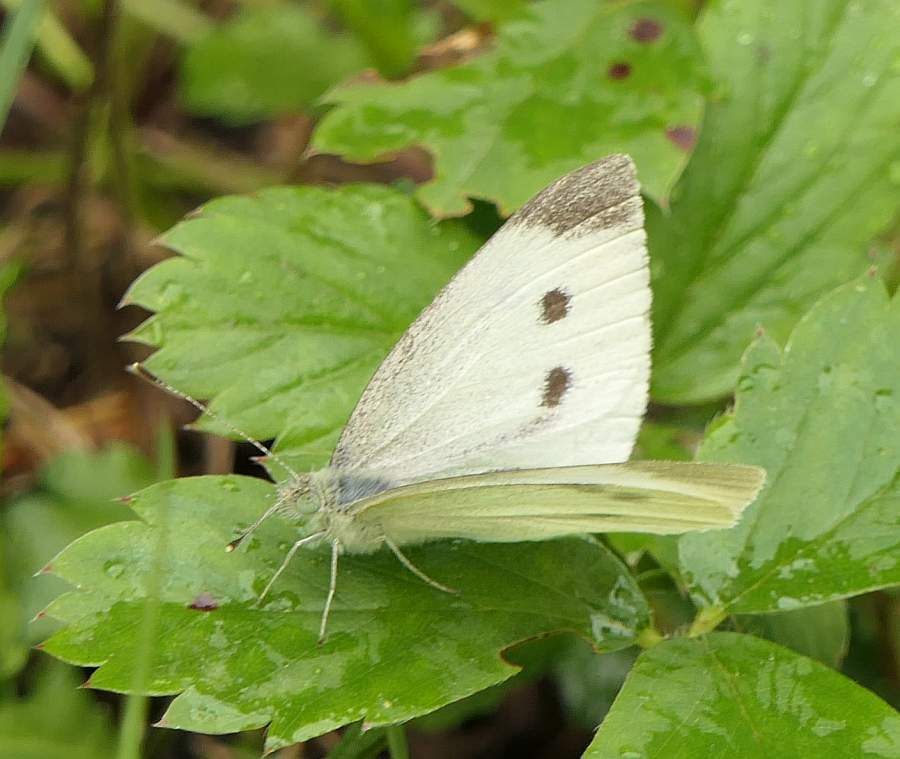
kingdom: Animalia
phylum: Arthropoda
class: Insecta
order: Lepidoptera
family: Pieridae
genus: Pieris
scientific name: Pieris rapae
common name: Small white
